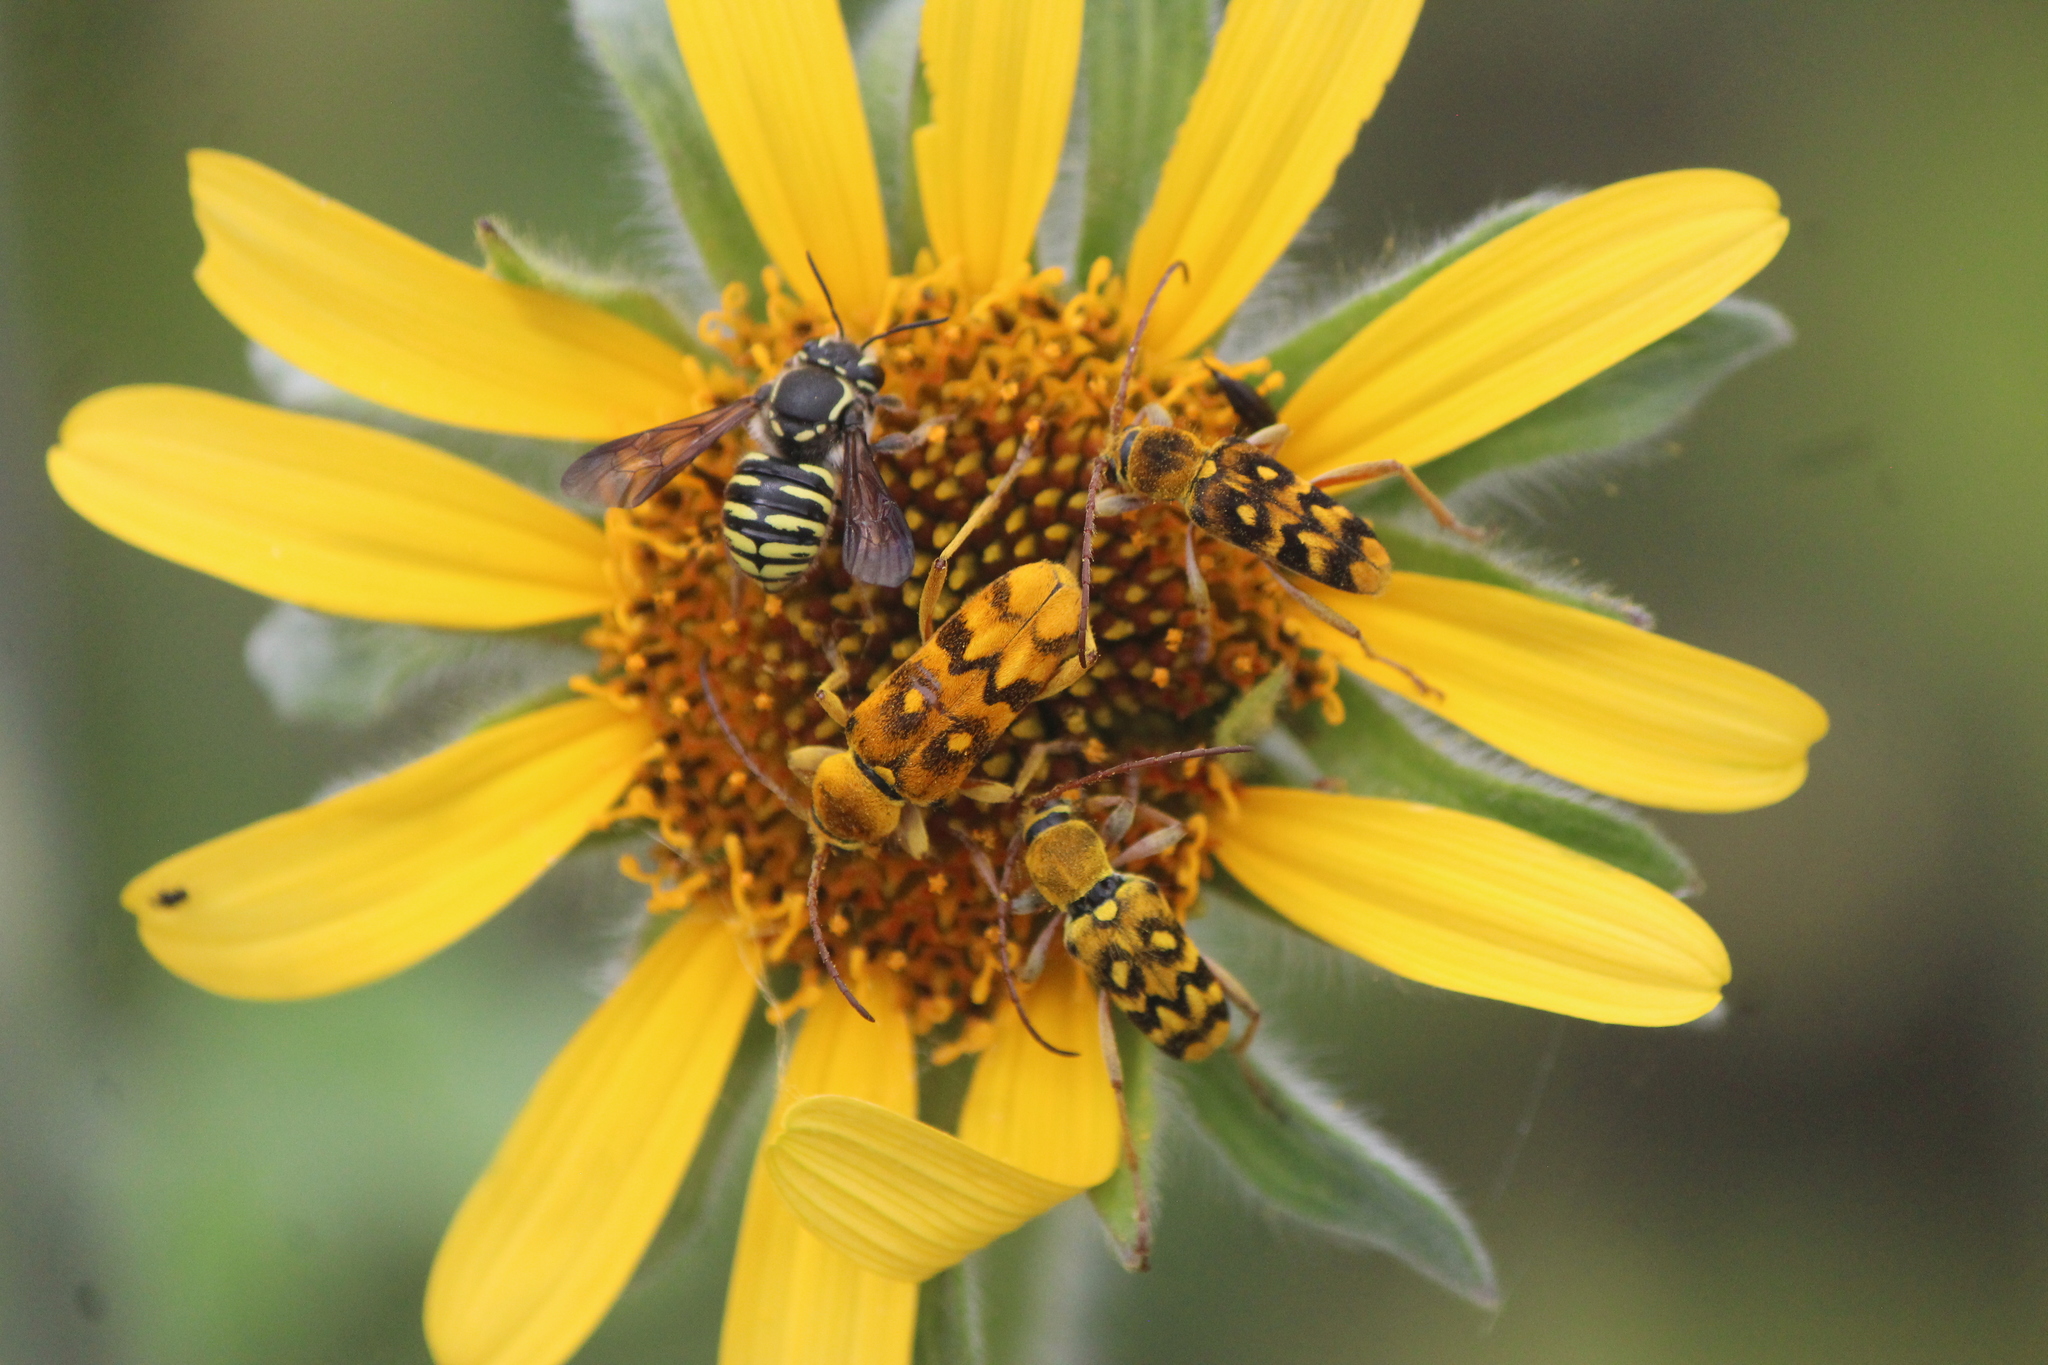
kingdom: Animalia
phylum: Arthropoda
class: Insecta
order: Hymenoptera
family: Megachilidae
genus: Paranthidium
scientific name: Paranthidium gabbii
